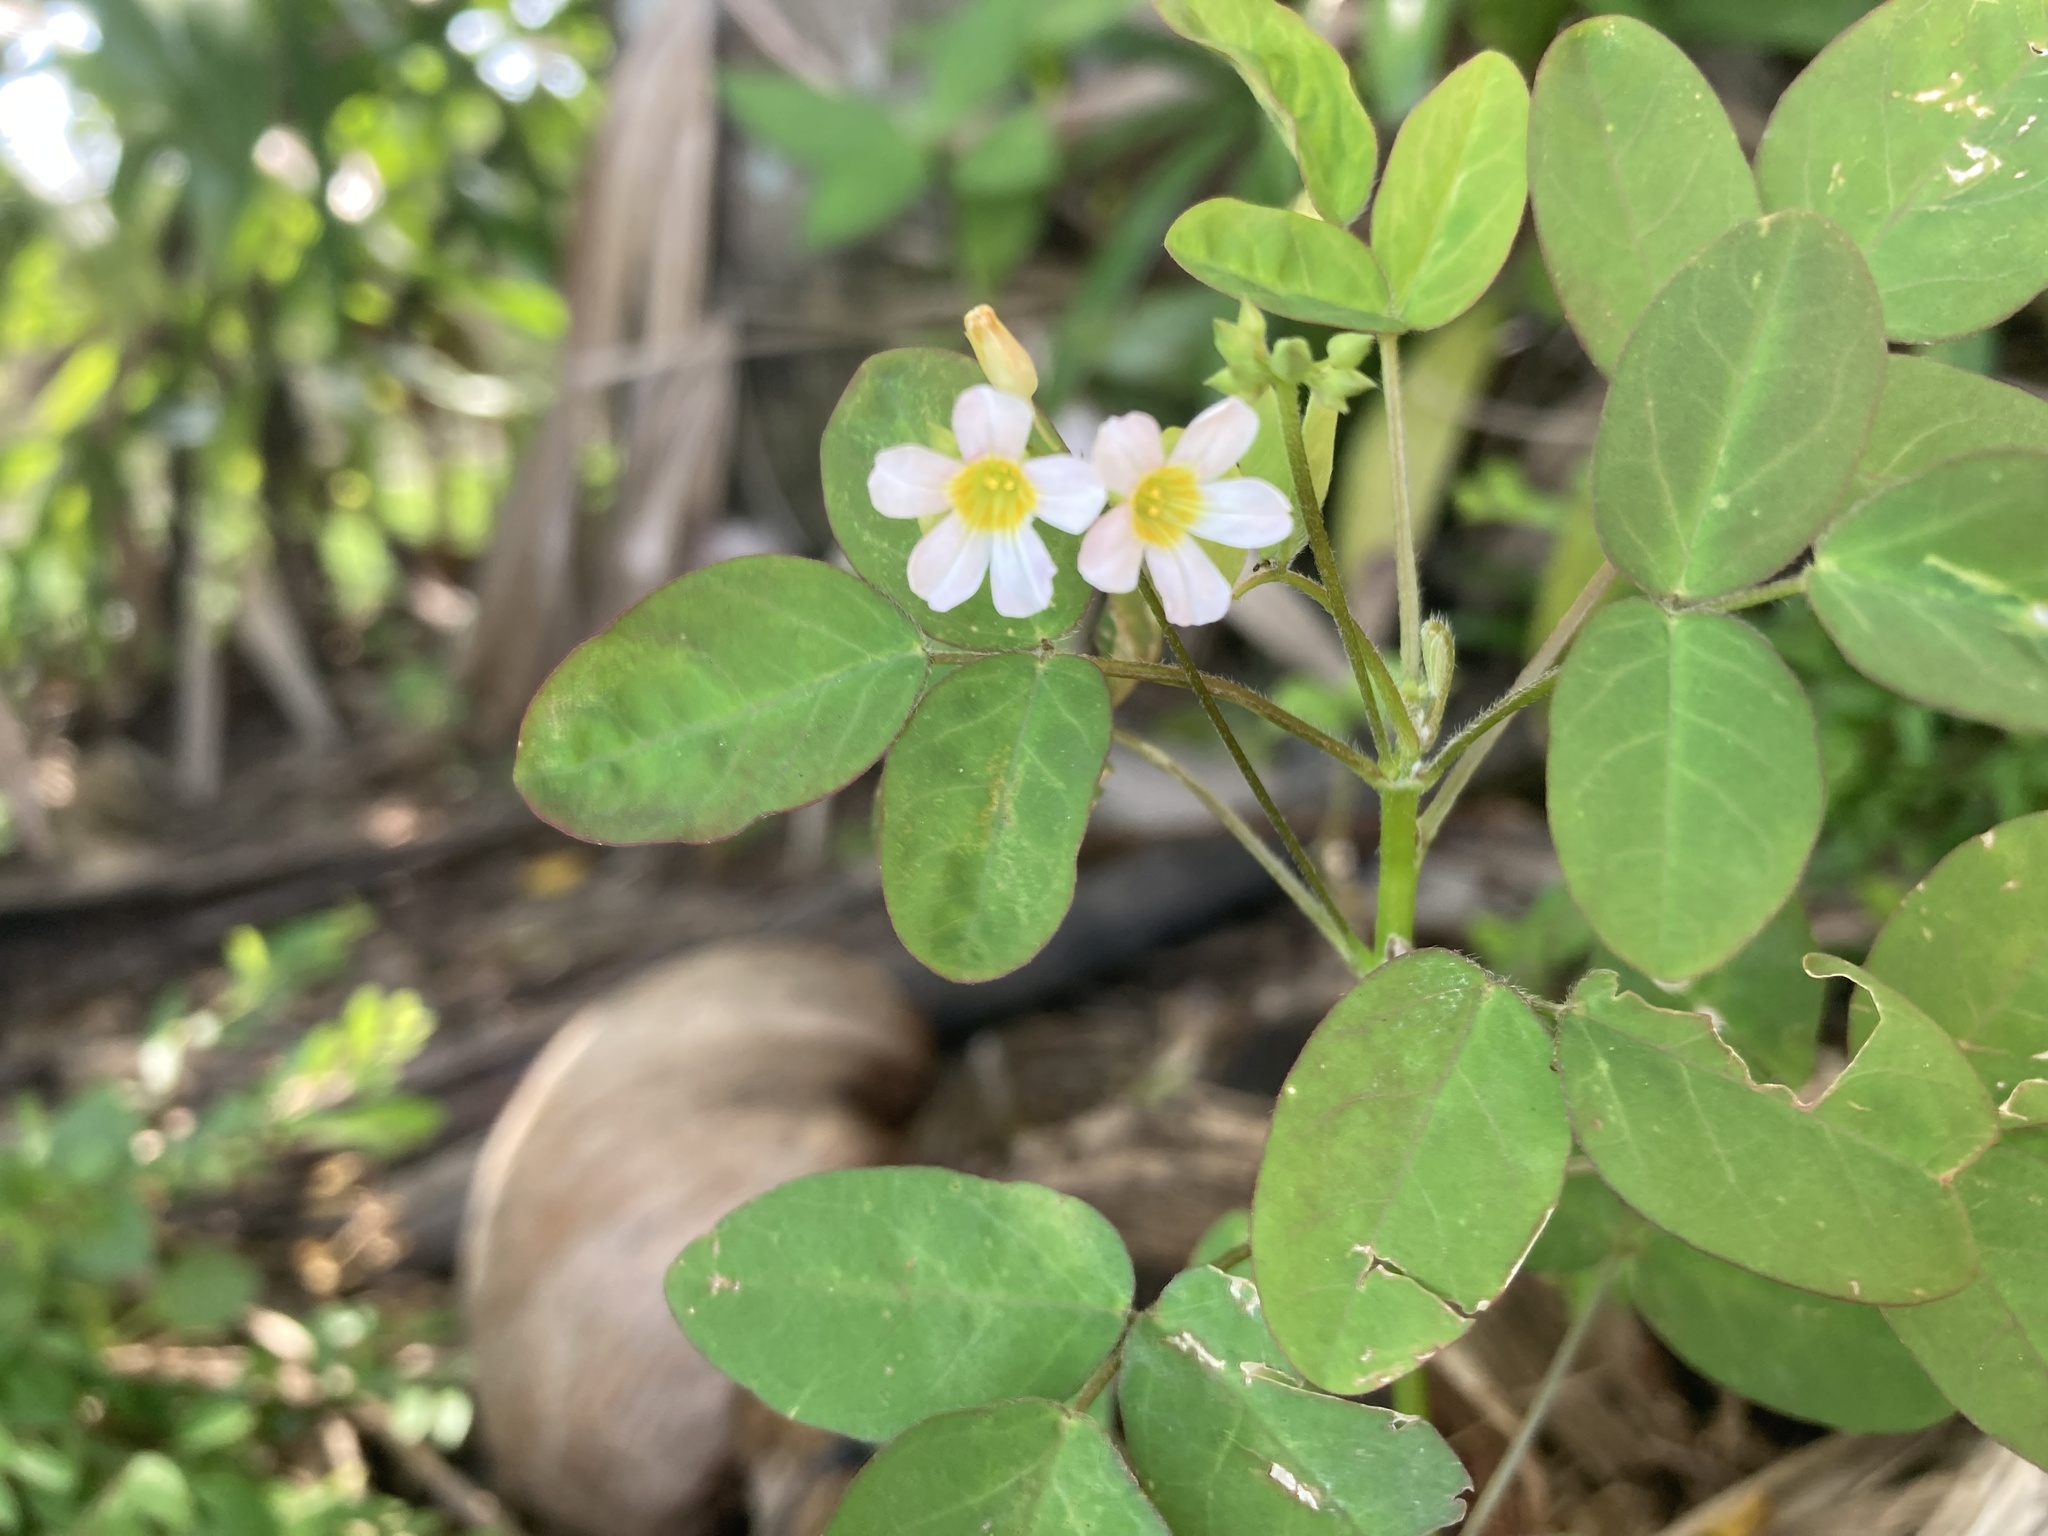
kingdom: Plantae
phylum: Tracheophyta
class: Magnoliopsida
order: Oxalidales
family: Oxalidaceae
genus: Oxalis
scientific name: Oxalis barrelieri
